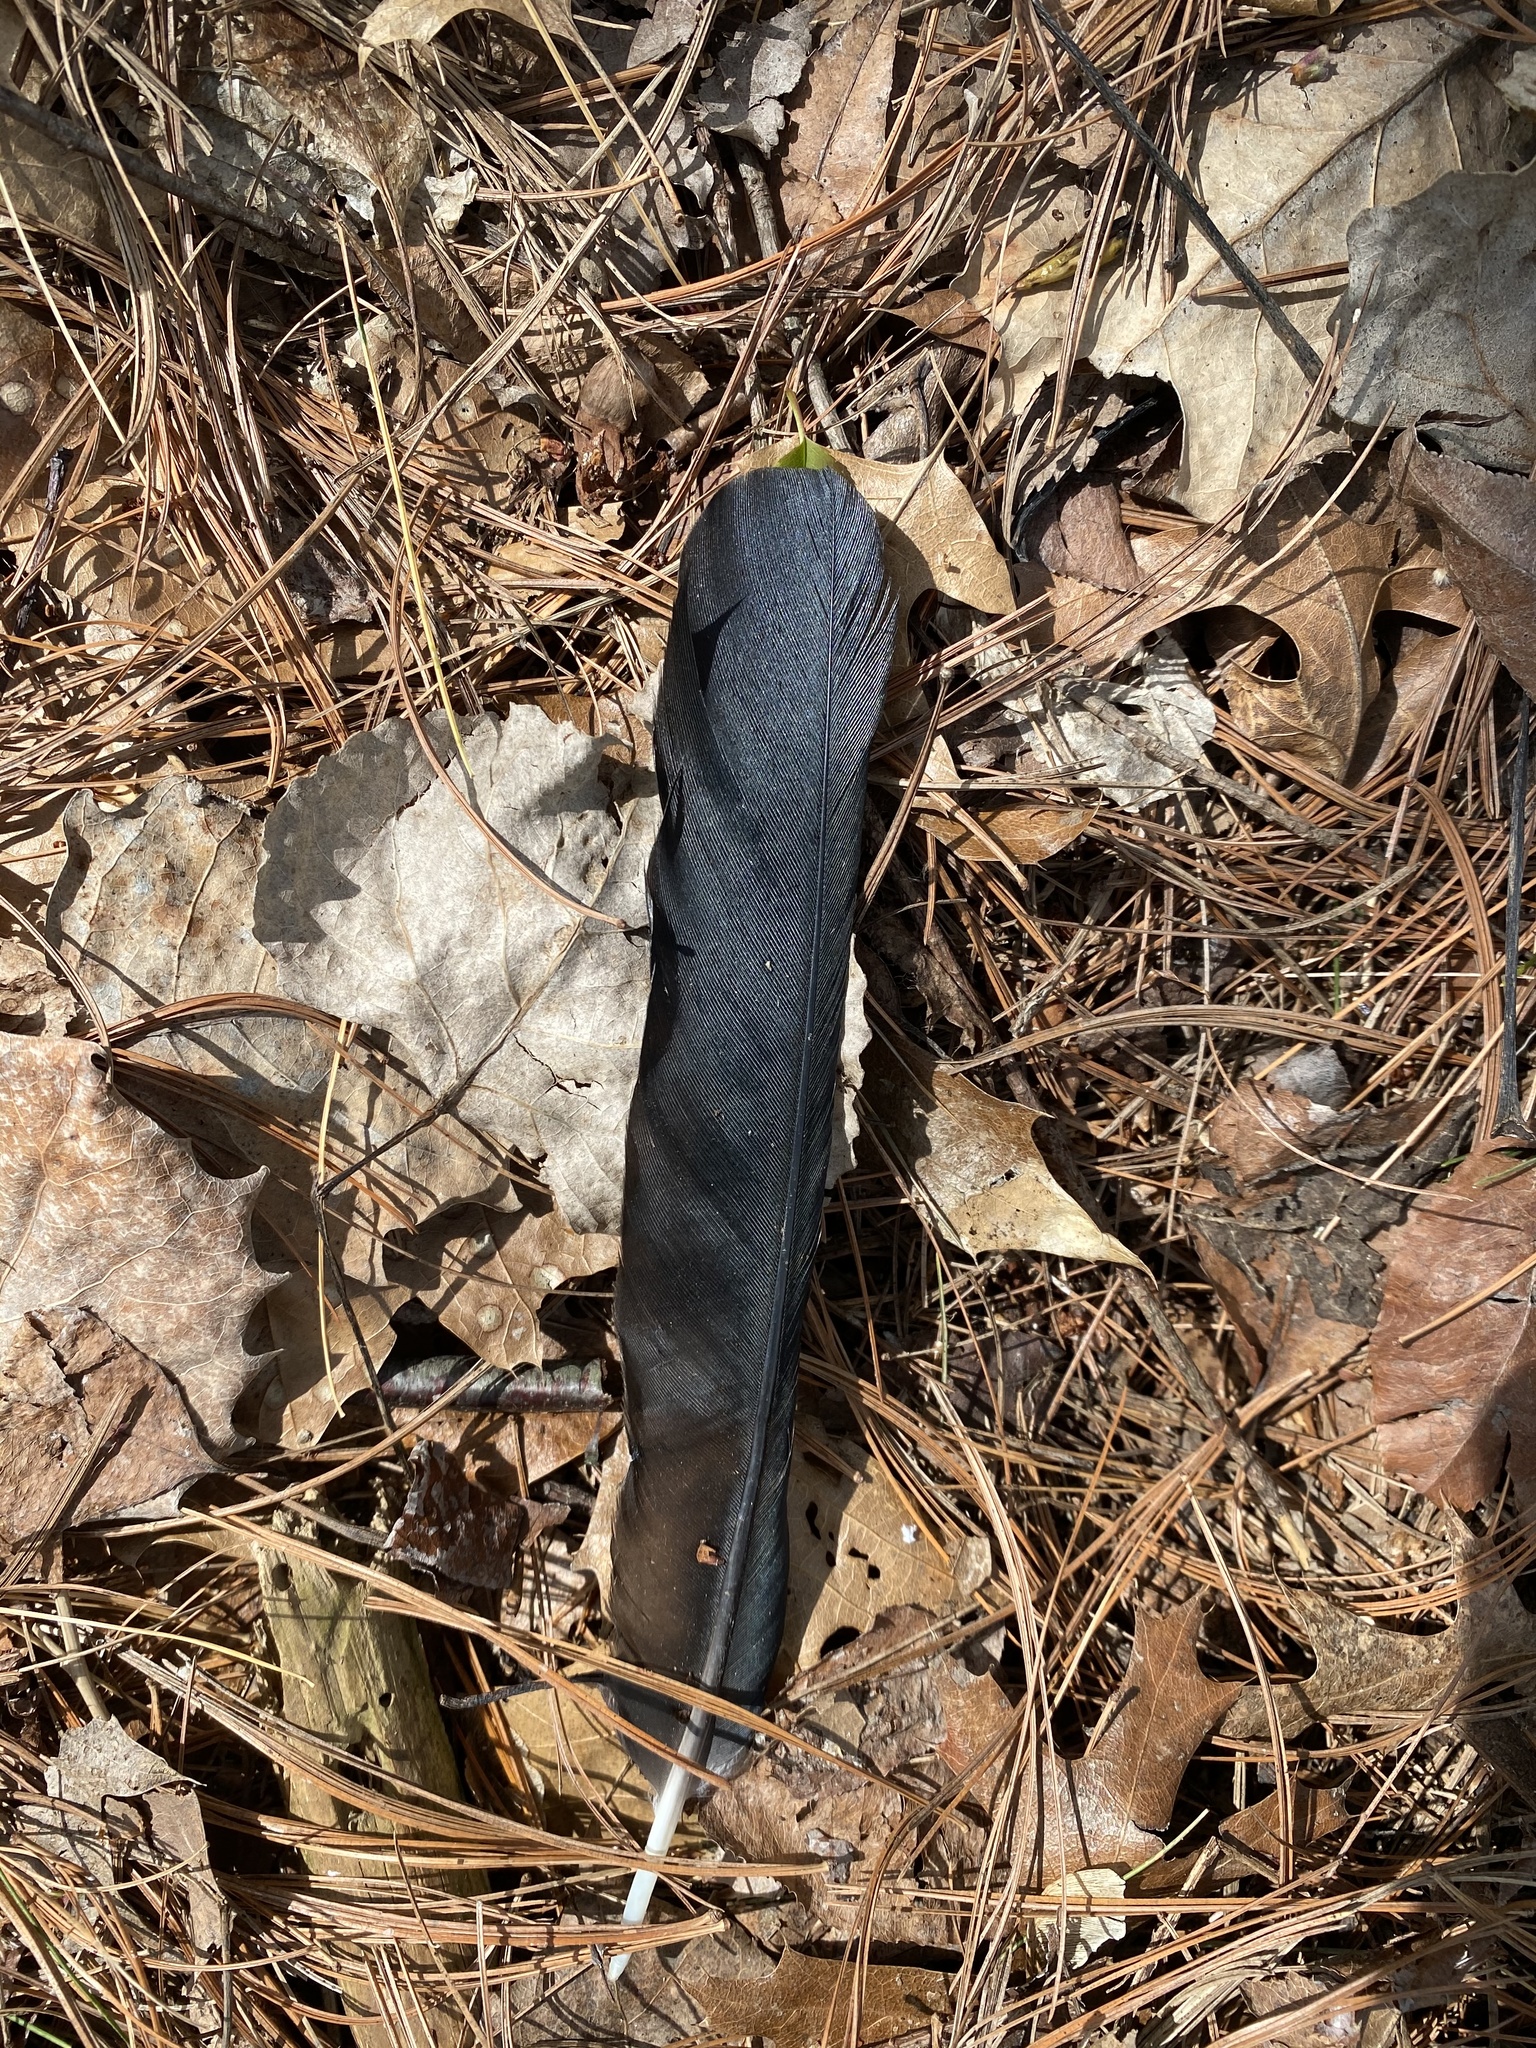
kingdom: Animalia
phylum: Chordata
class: Aves
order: Passeriformes
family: Corvidae
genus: Corvus
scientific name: Corvus brachyrhynchos
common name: American crow
